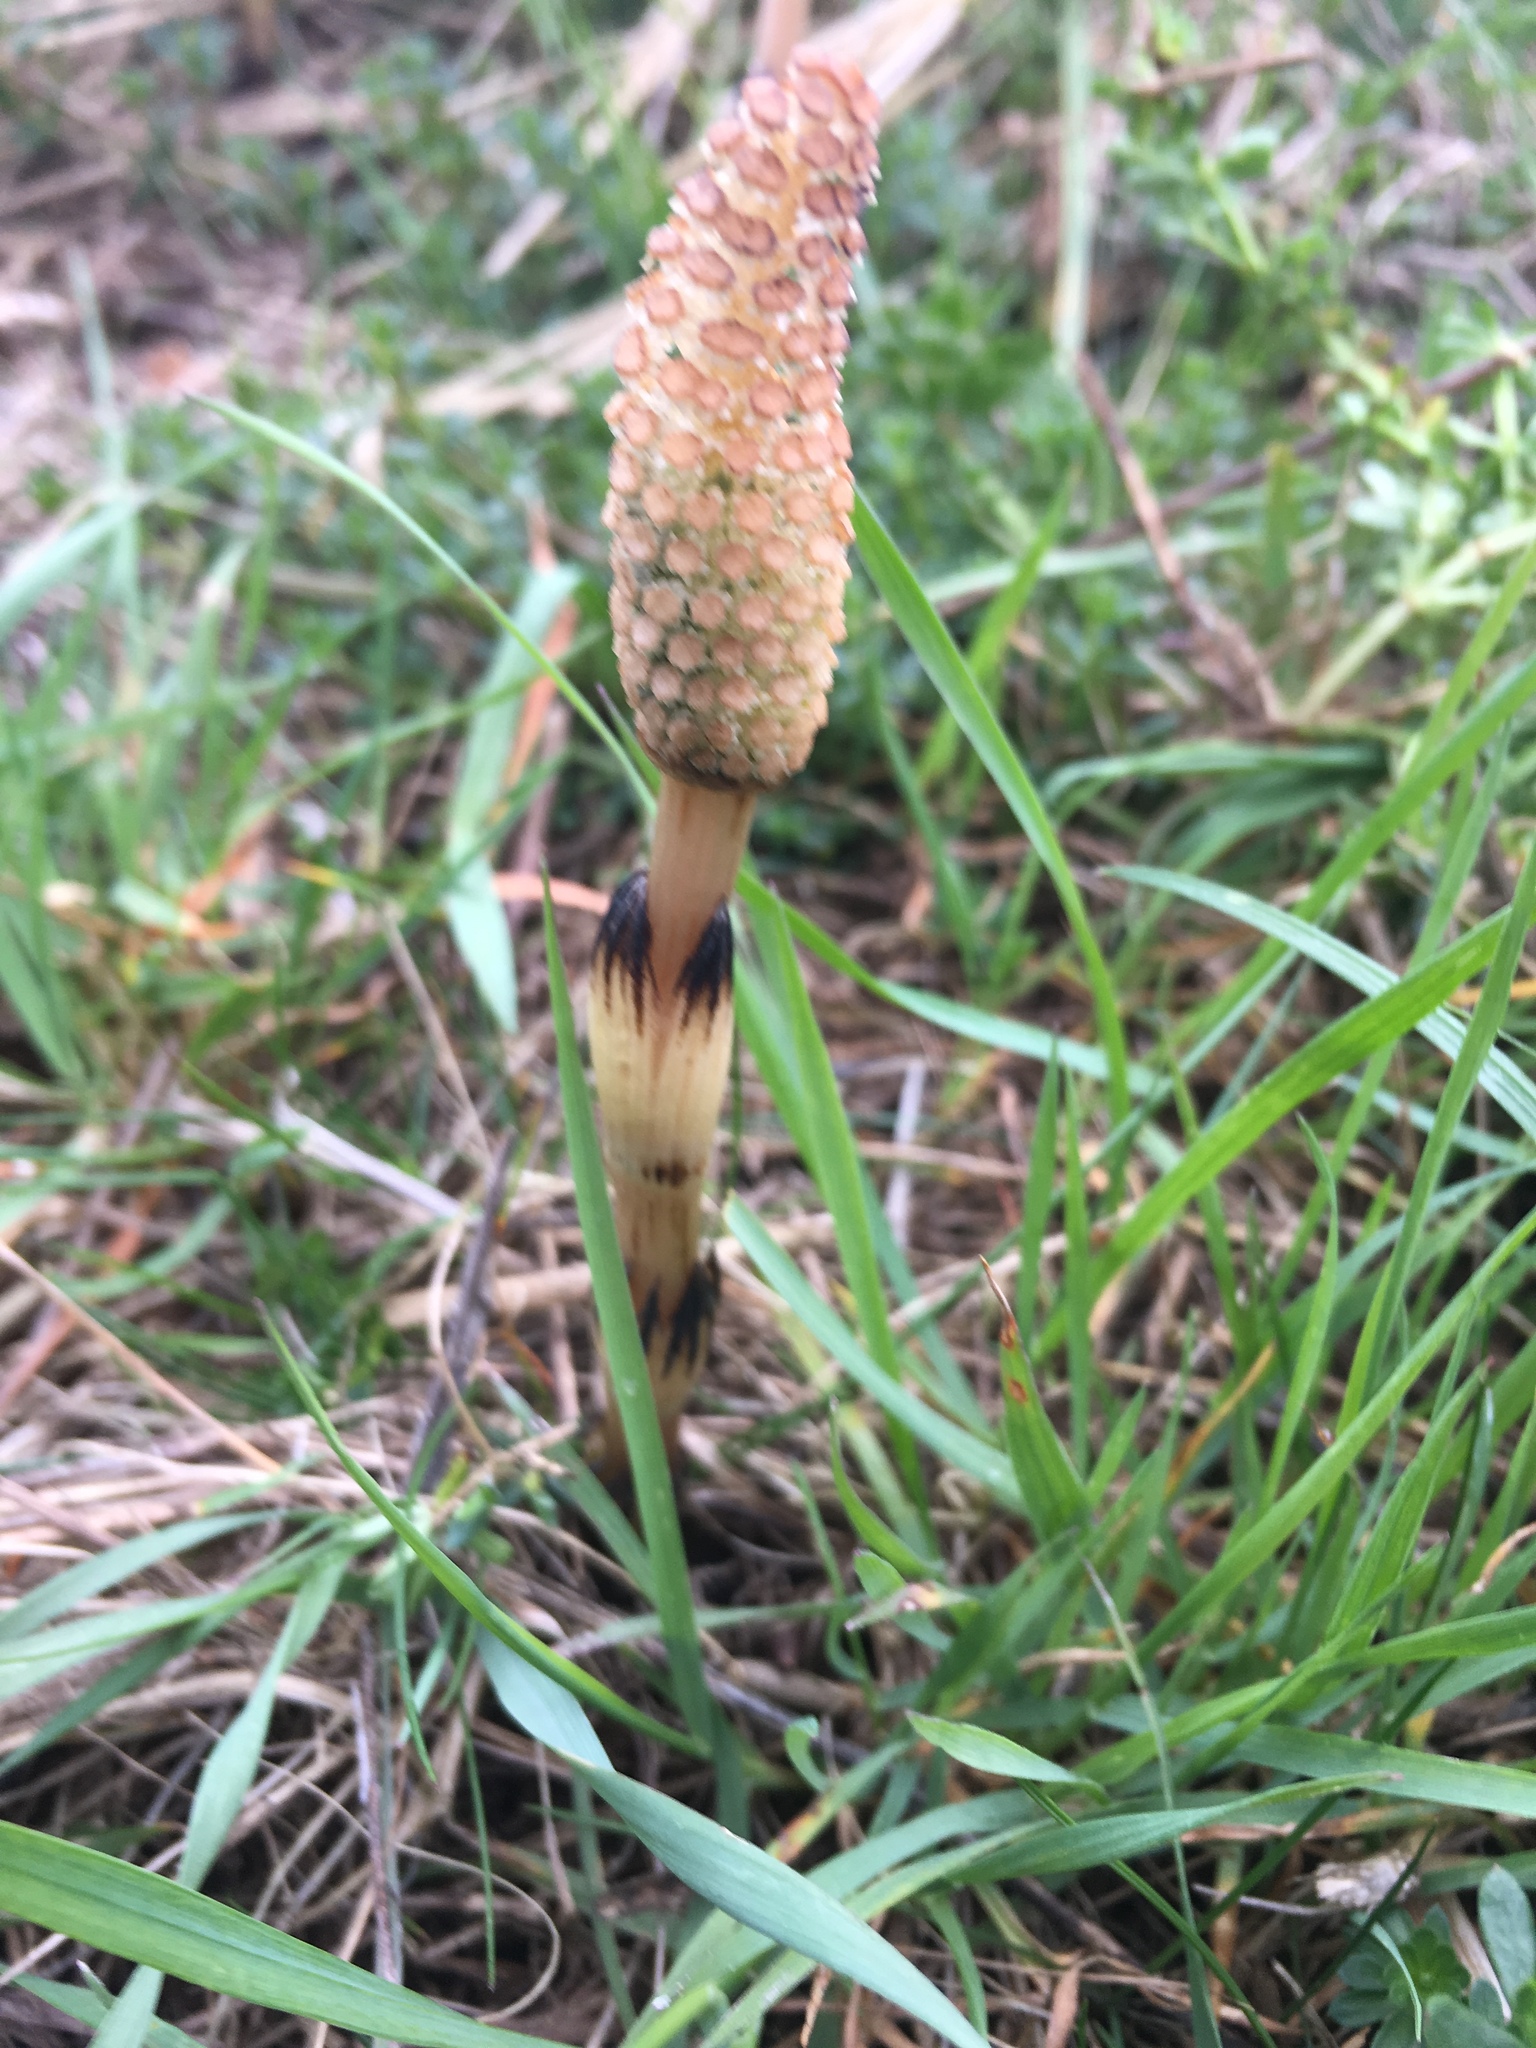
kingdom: Plantae
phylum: Tracheophyta
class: Polypodiopsida
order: Equisetales
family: Equisetaceae
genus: Equisetum
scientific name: Equisetum arvense
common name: Field horsetail
